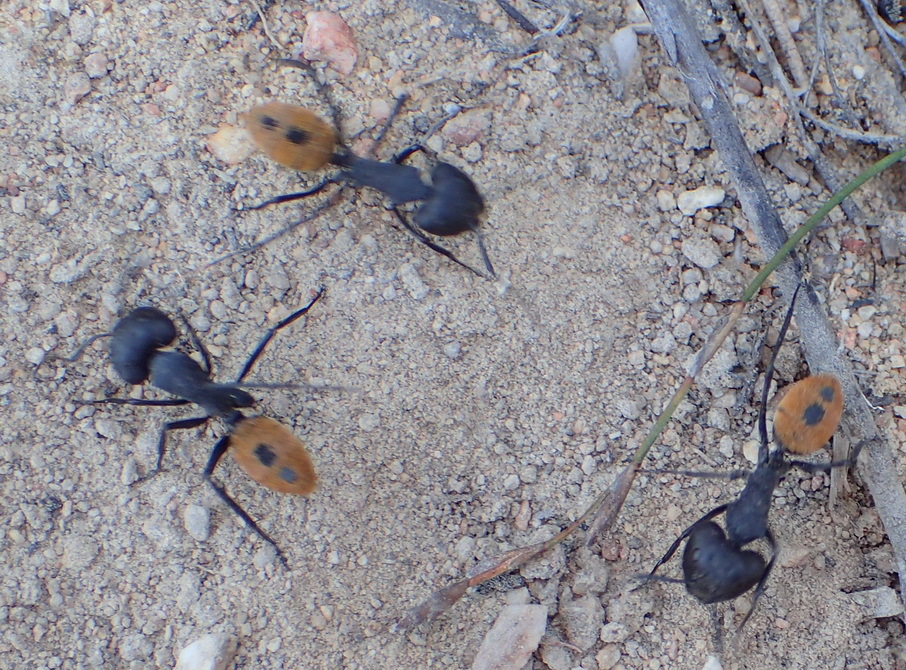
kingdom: Animalia
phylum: Arthropoda
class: Insecta
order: Hymenoptera
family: Formicidae
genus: Camponotus
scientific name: Camponotus fulvopilosus
